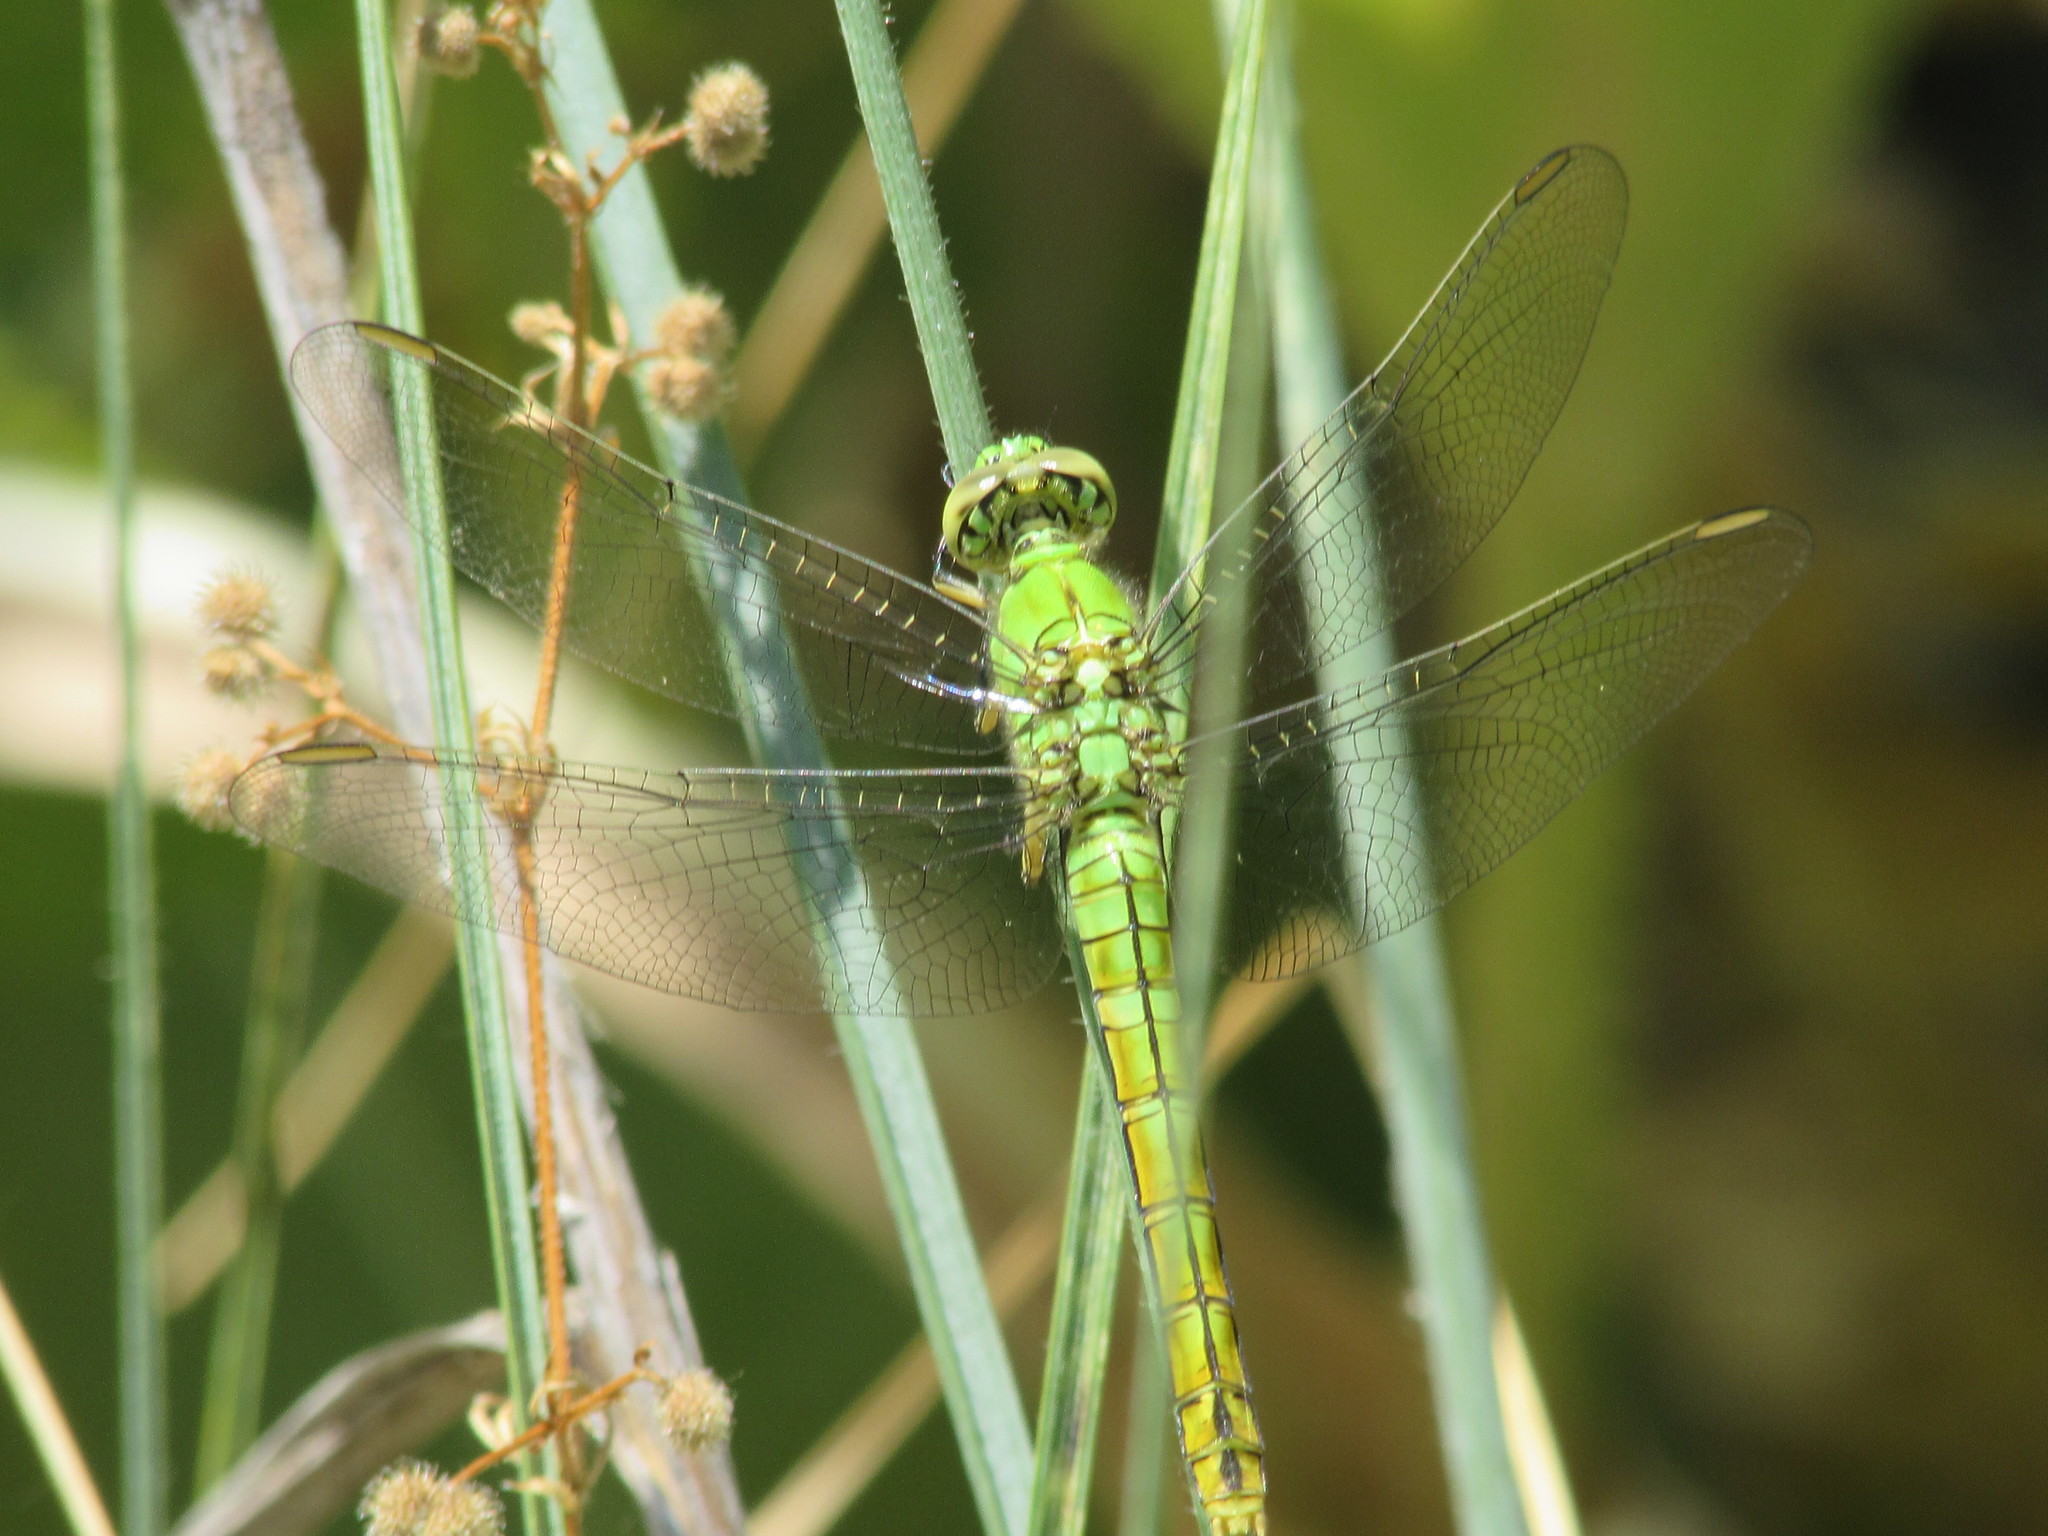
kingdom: Animalia
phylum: Arthropoda
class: Insecta
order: Odonata
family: Libellulidae
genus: Erythemis
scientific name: Erythemis collocata
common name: Western pondhawk
